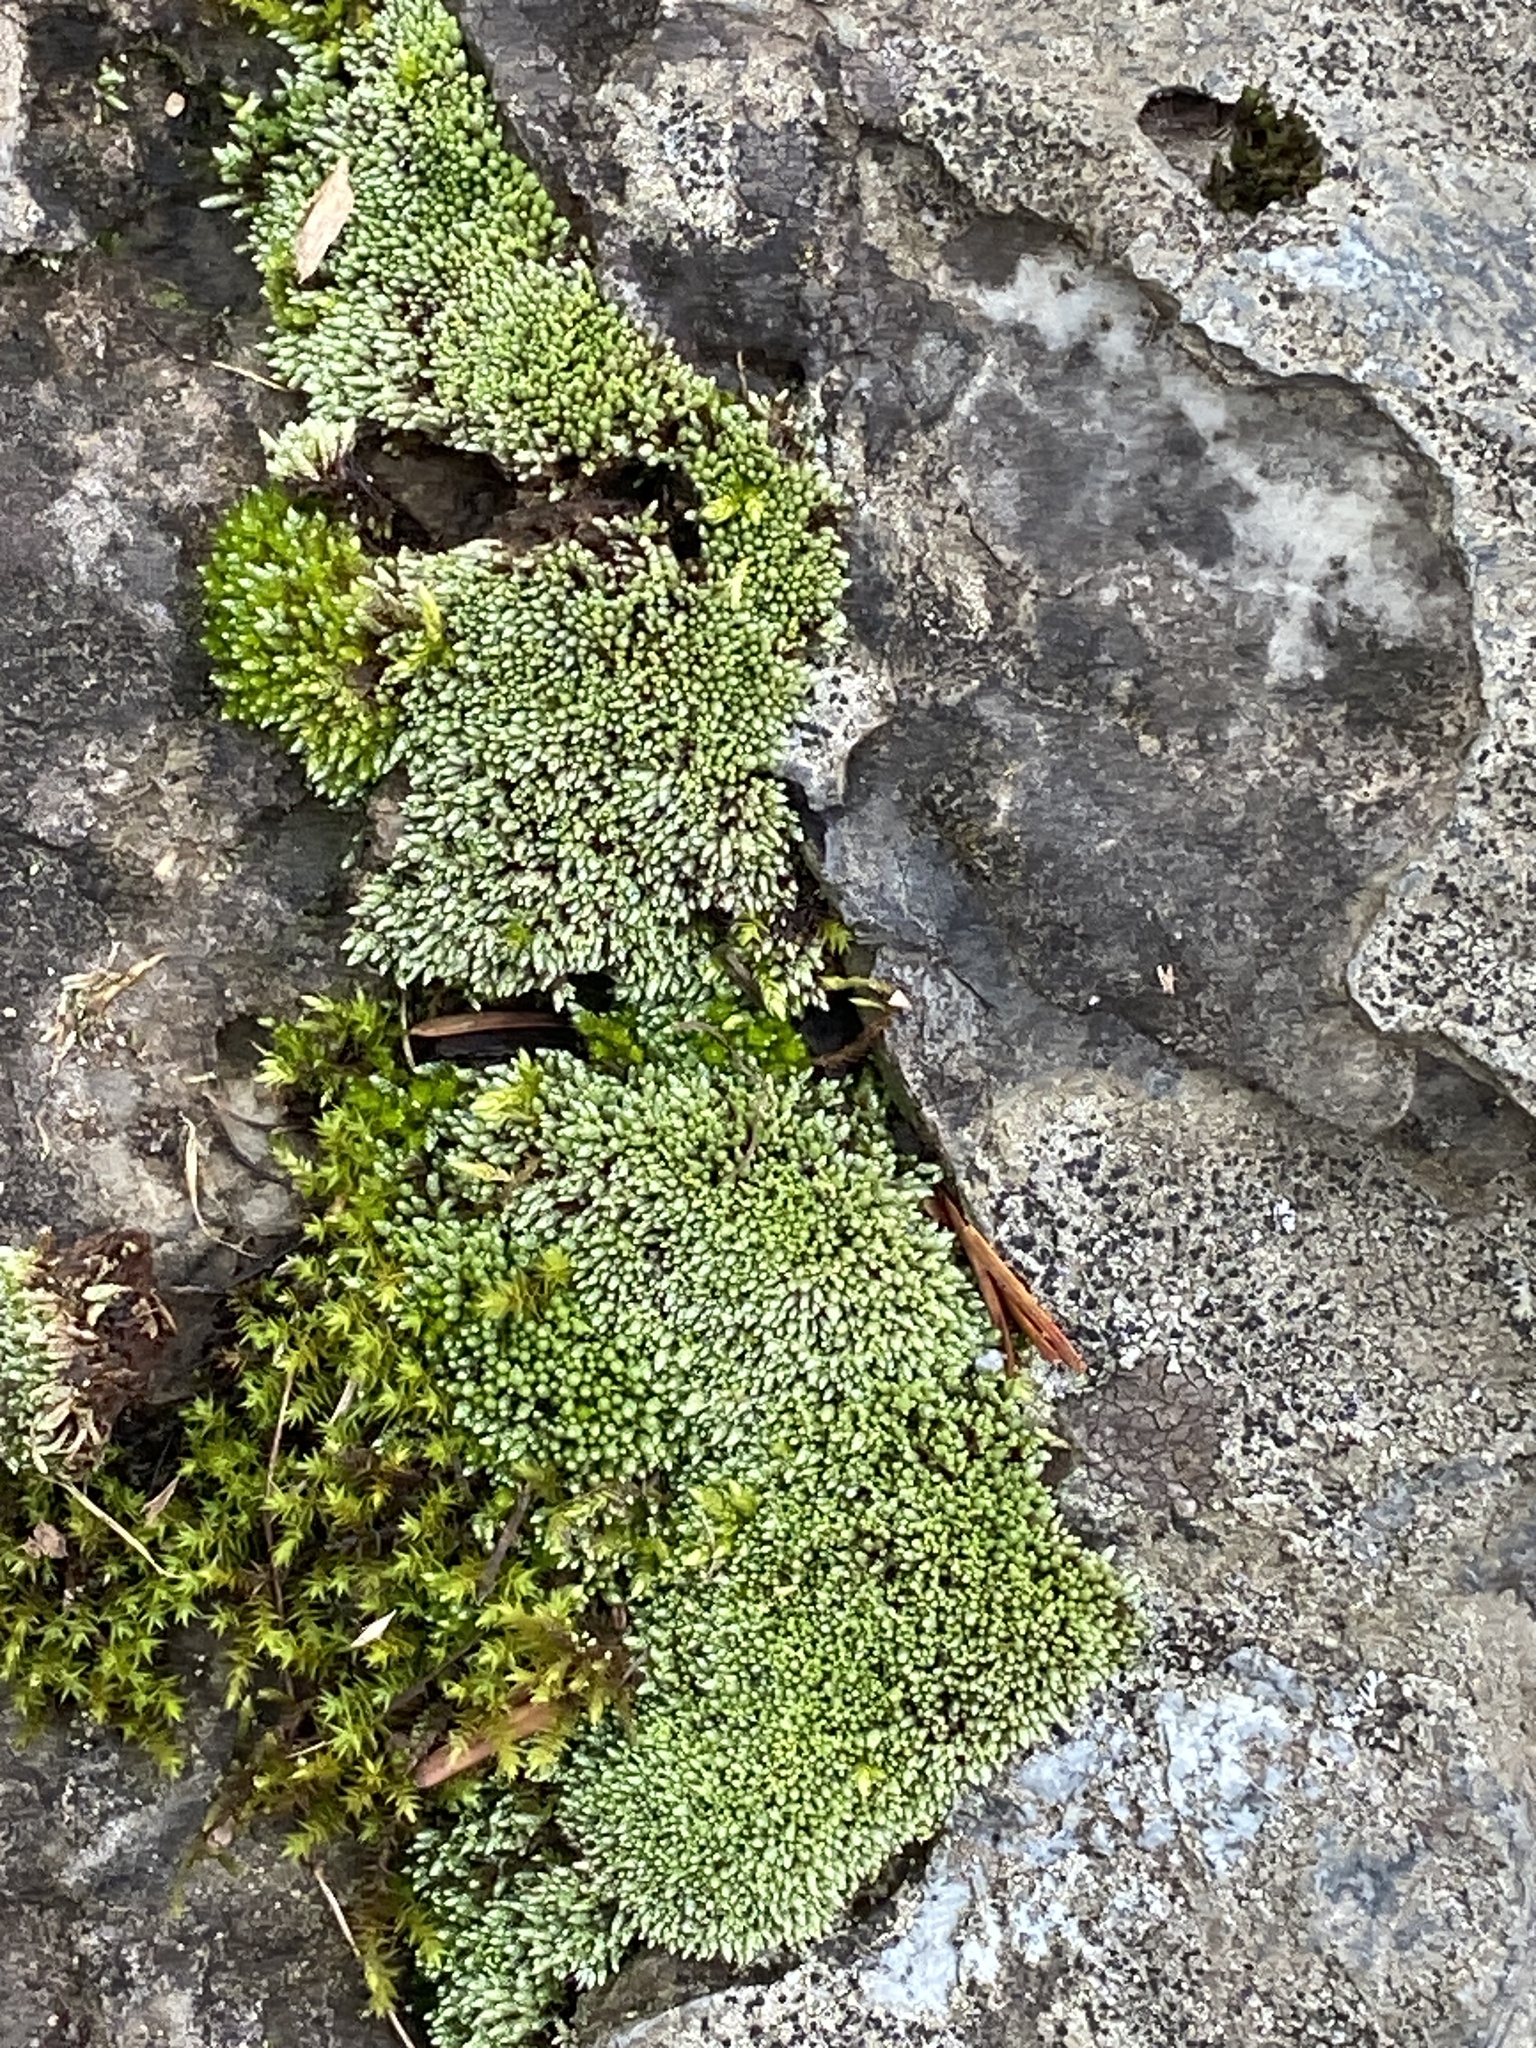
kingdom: Plantae
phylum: Bryophyta
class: Bryopsida
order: Bryales
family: Bryaceae
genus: Bryum
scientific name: Bryum argenteum
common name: Silver-moss
